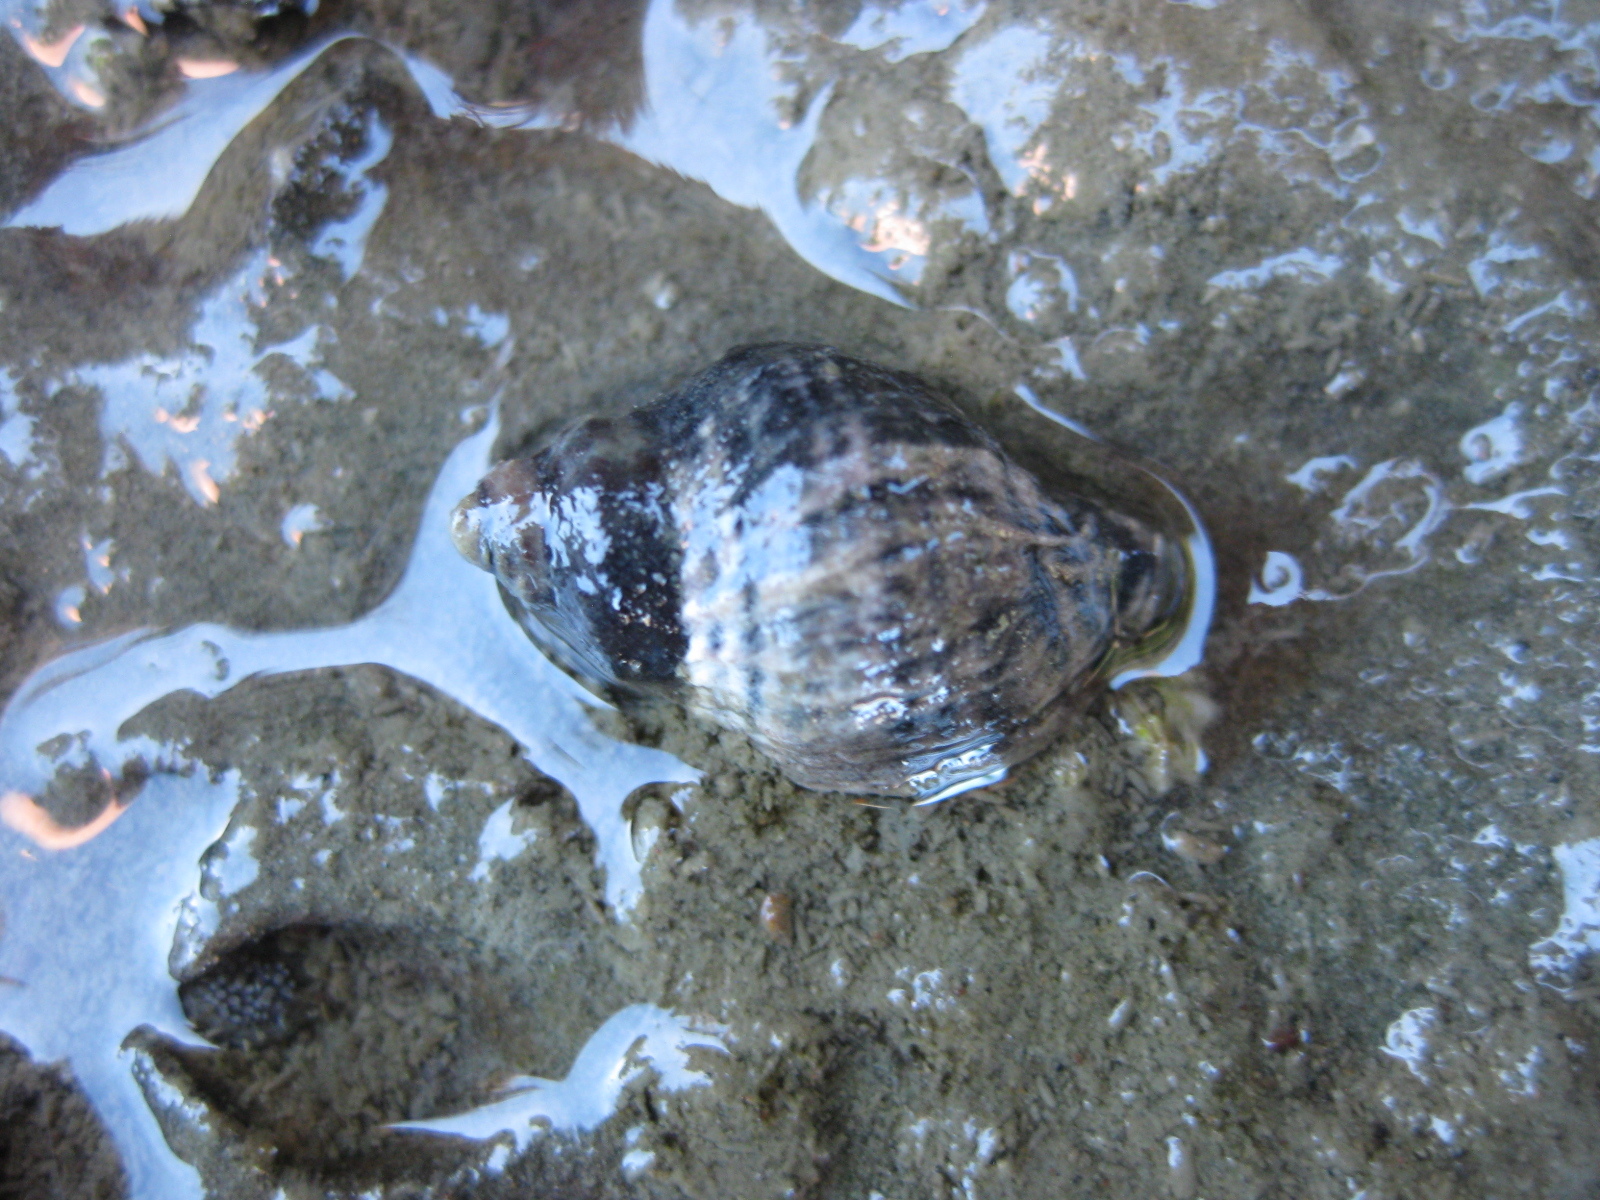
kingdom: Animalia
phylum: Mollusca
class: Gastropoda
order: Neogastropoda
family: Muricidae
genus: Haustrum
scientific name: Haustrum albomarginatum
